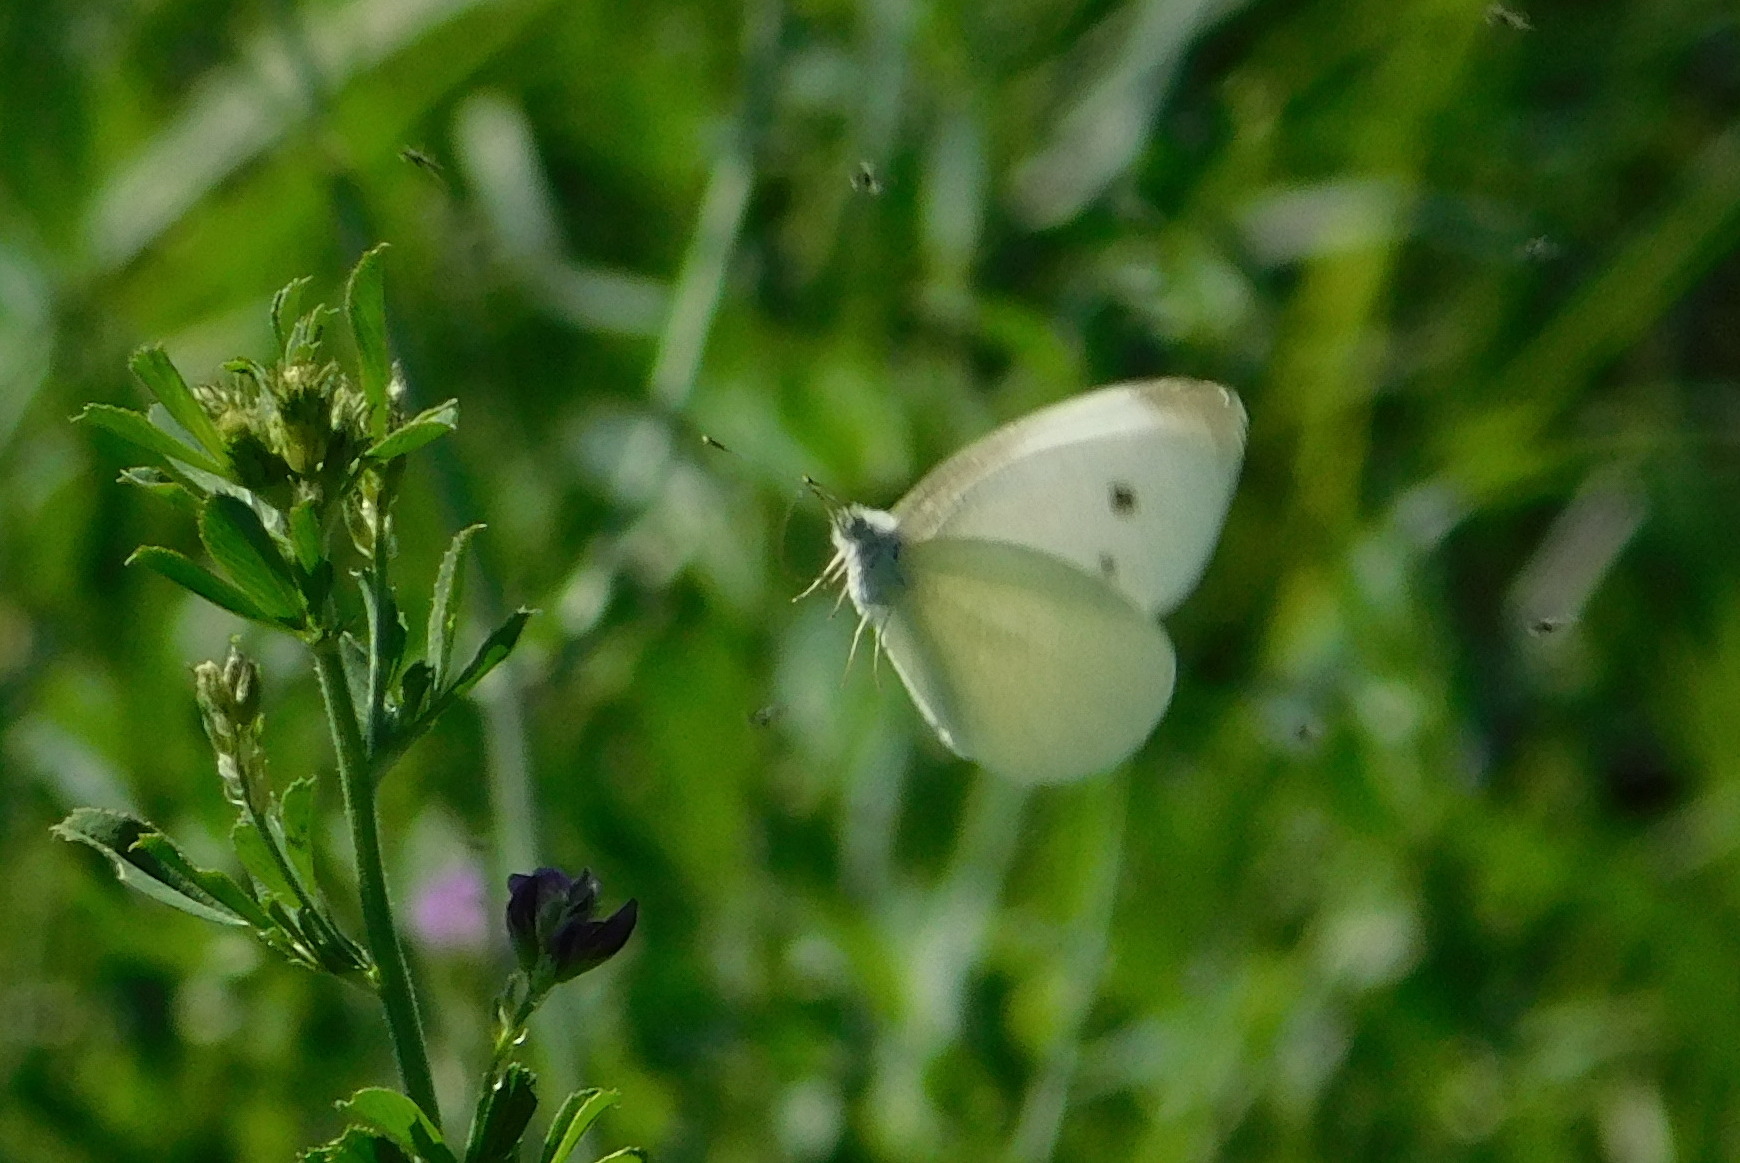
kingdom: Animalia
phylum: Arthropoda
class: Insecta
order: Lepidoptera
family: Pieridae
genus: Pieris
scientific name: Pieris rapae
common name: Small white
